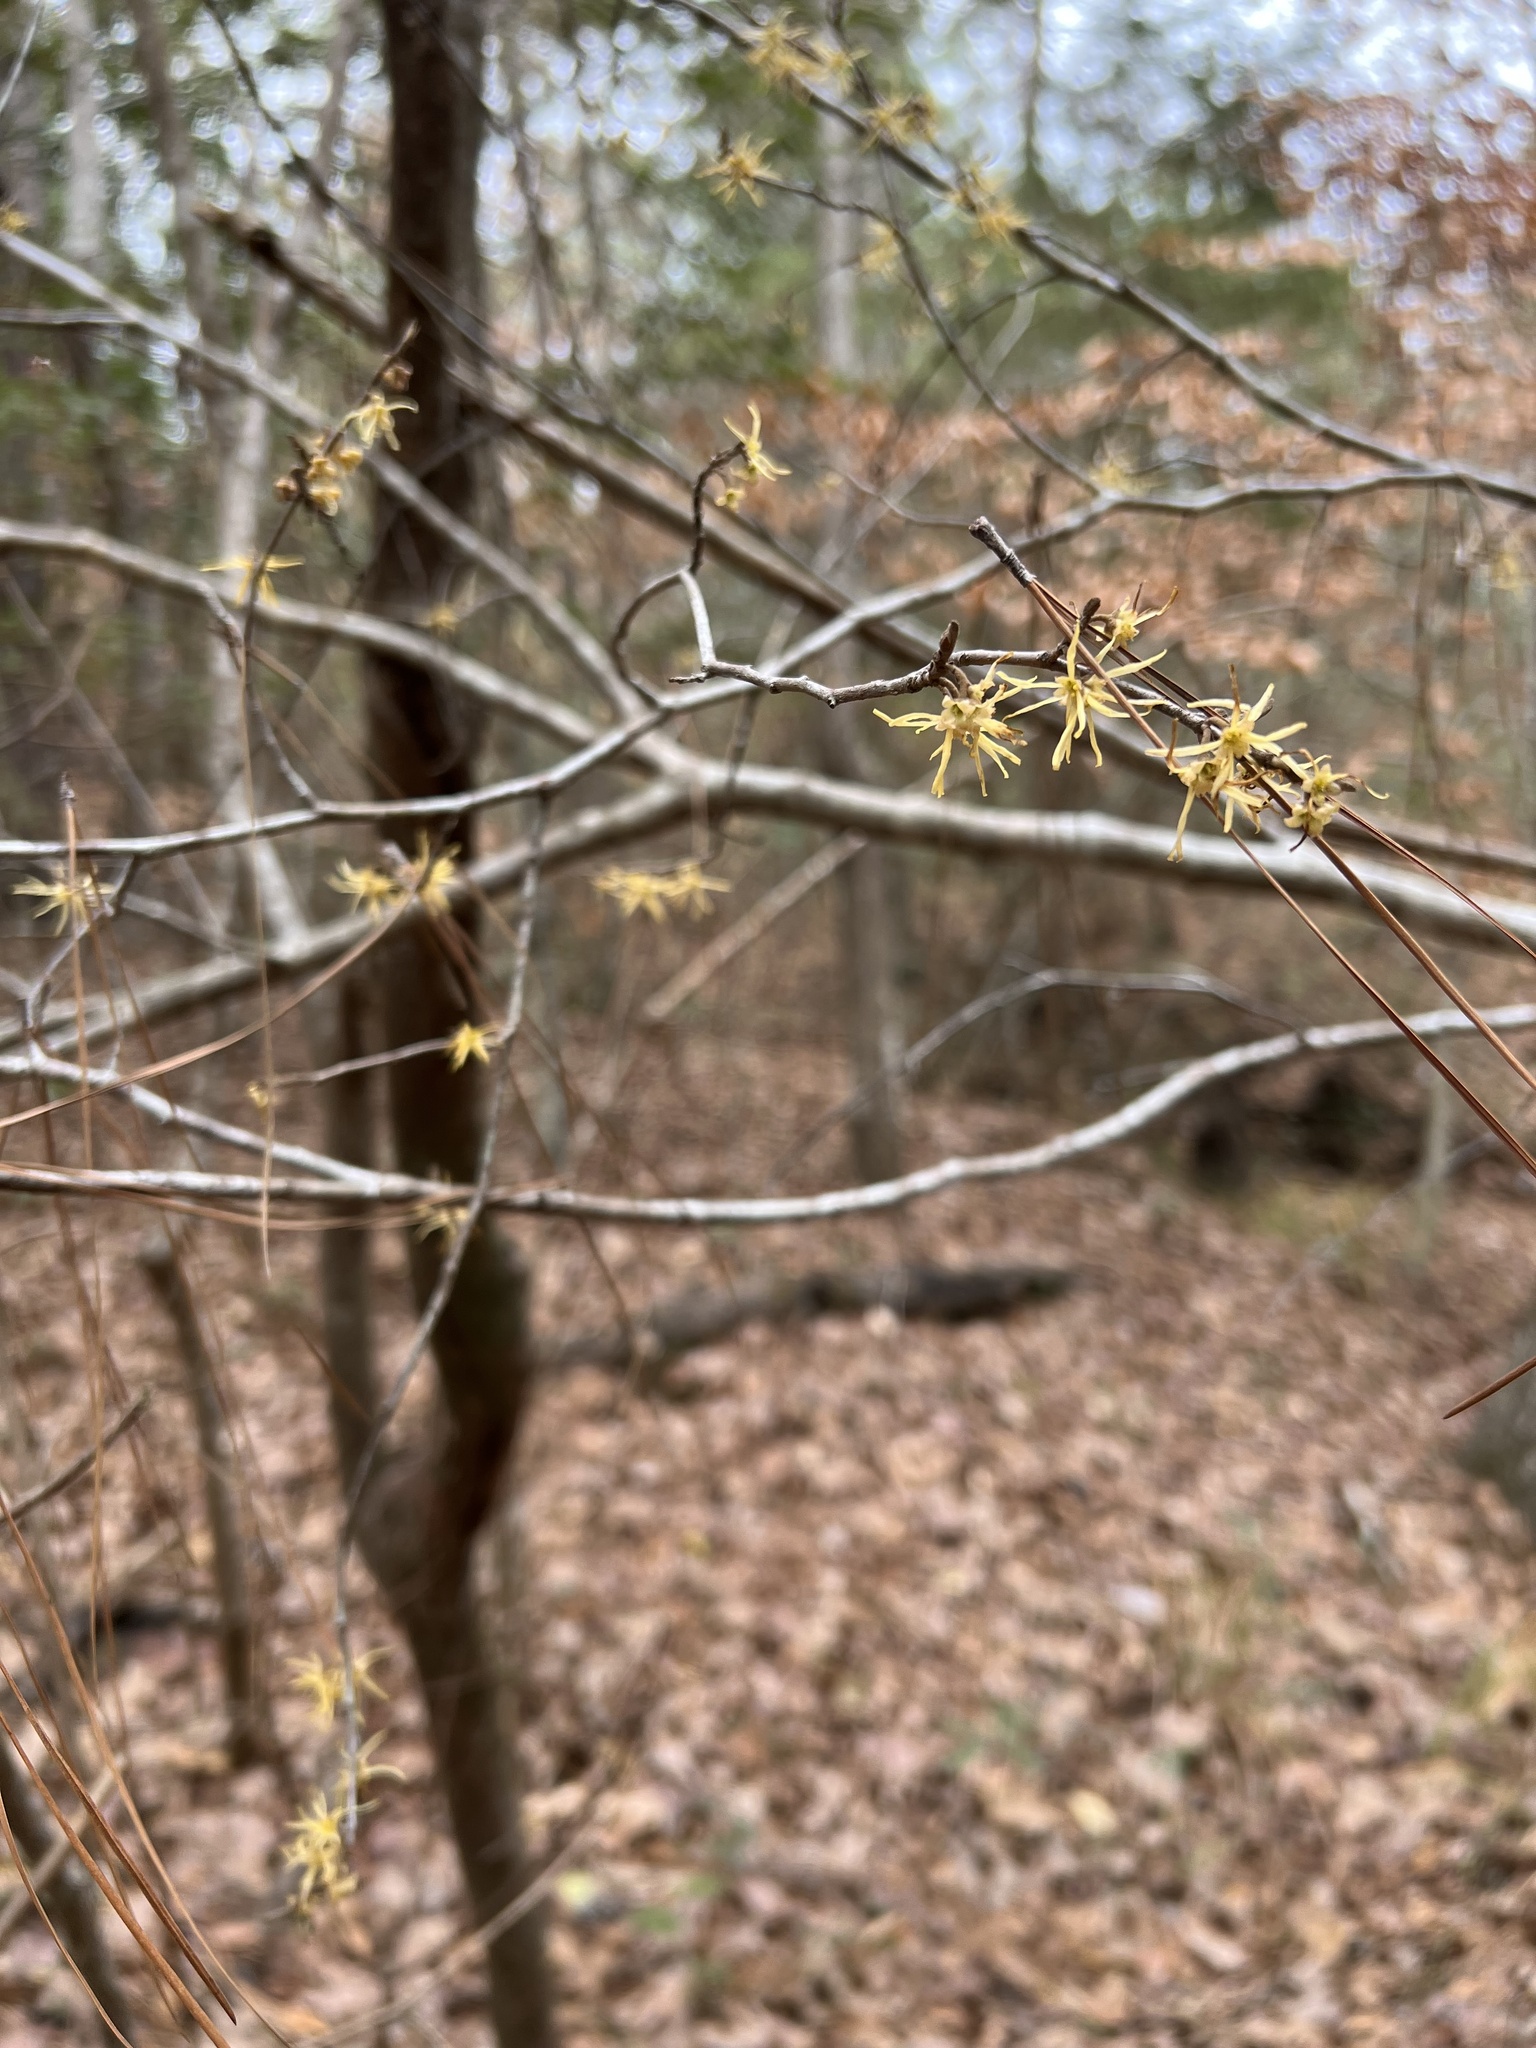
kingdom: Plantae
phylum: Tracheophyta
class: Magnoliopsida
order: Saxifragales
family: Hamamelidaceae
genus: Hamamelis
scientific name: Hamamelis virginiana
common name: Witch-hazel
